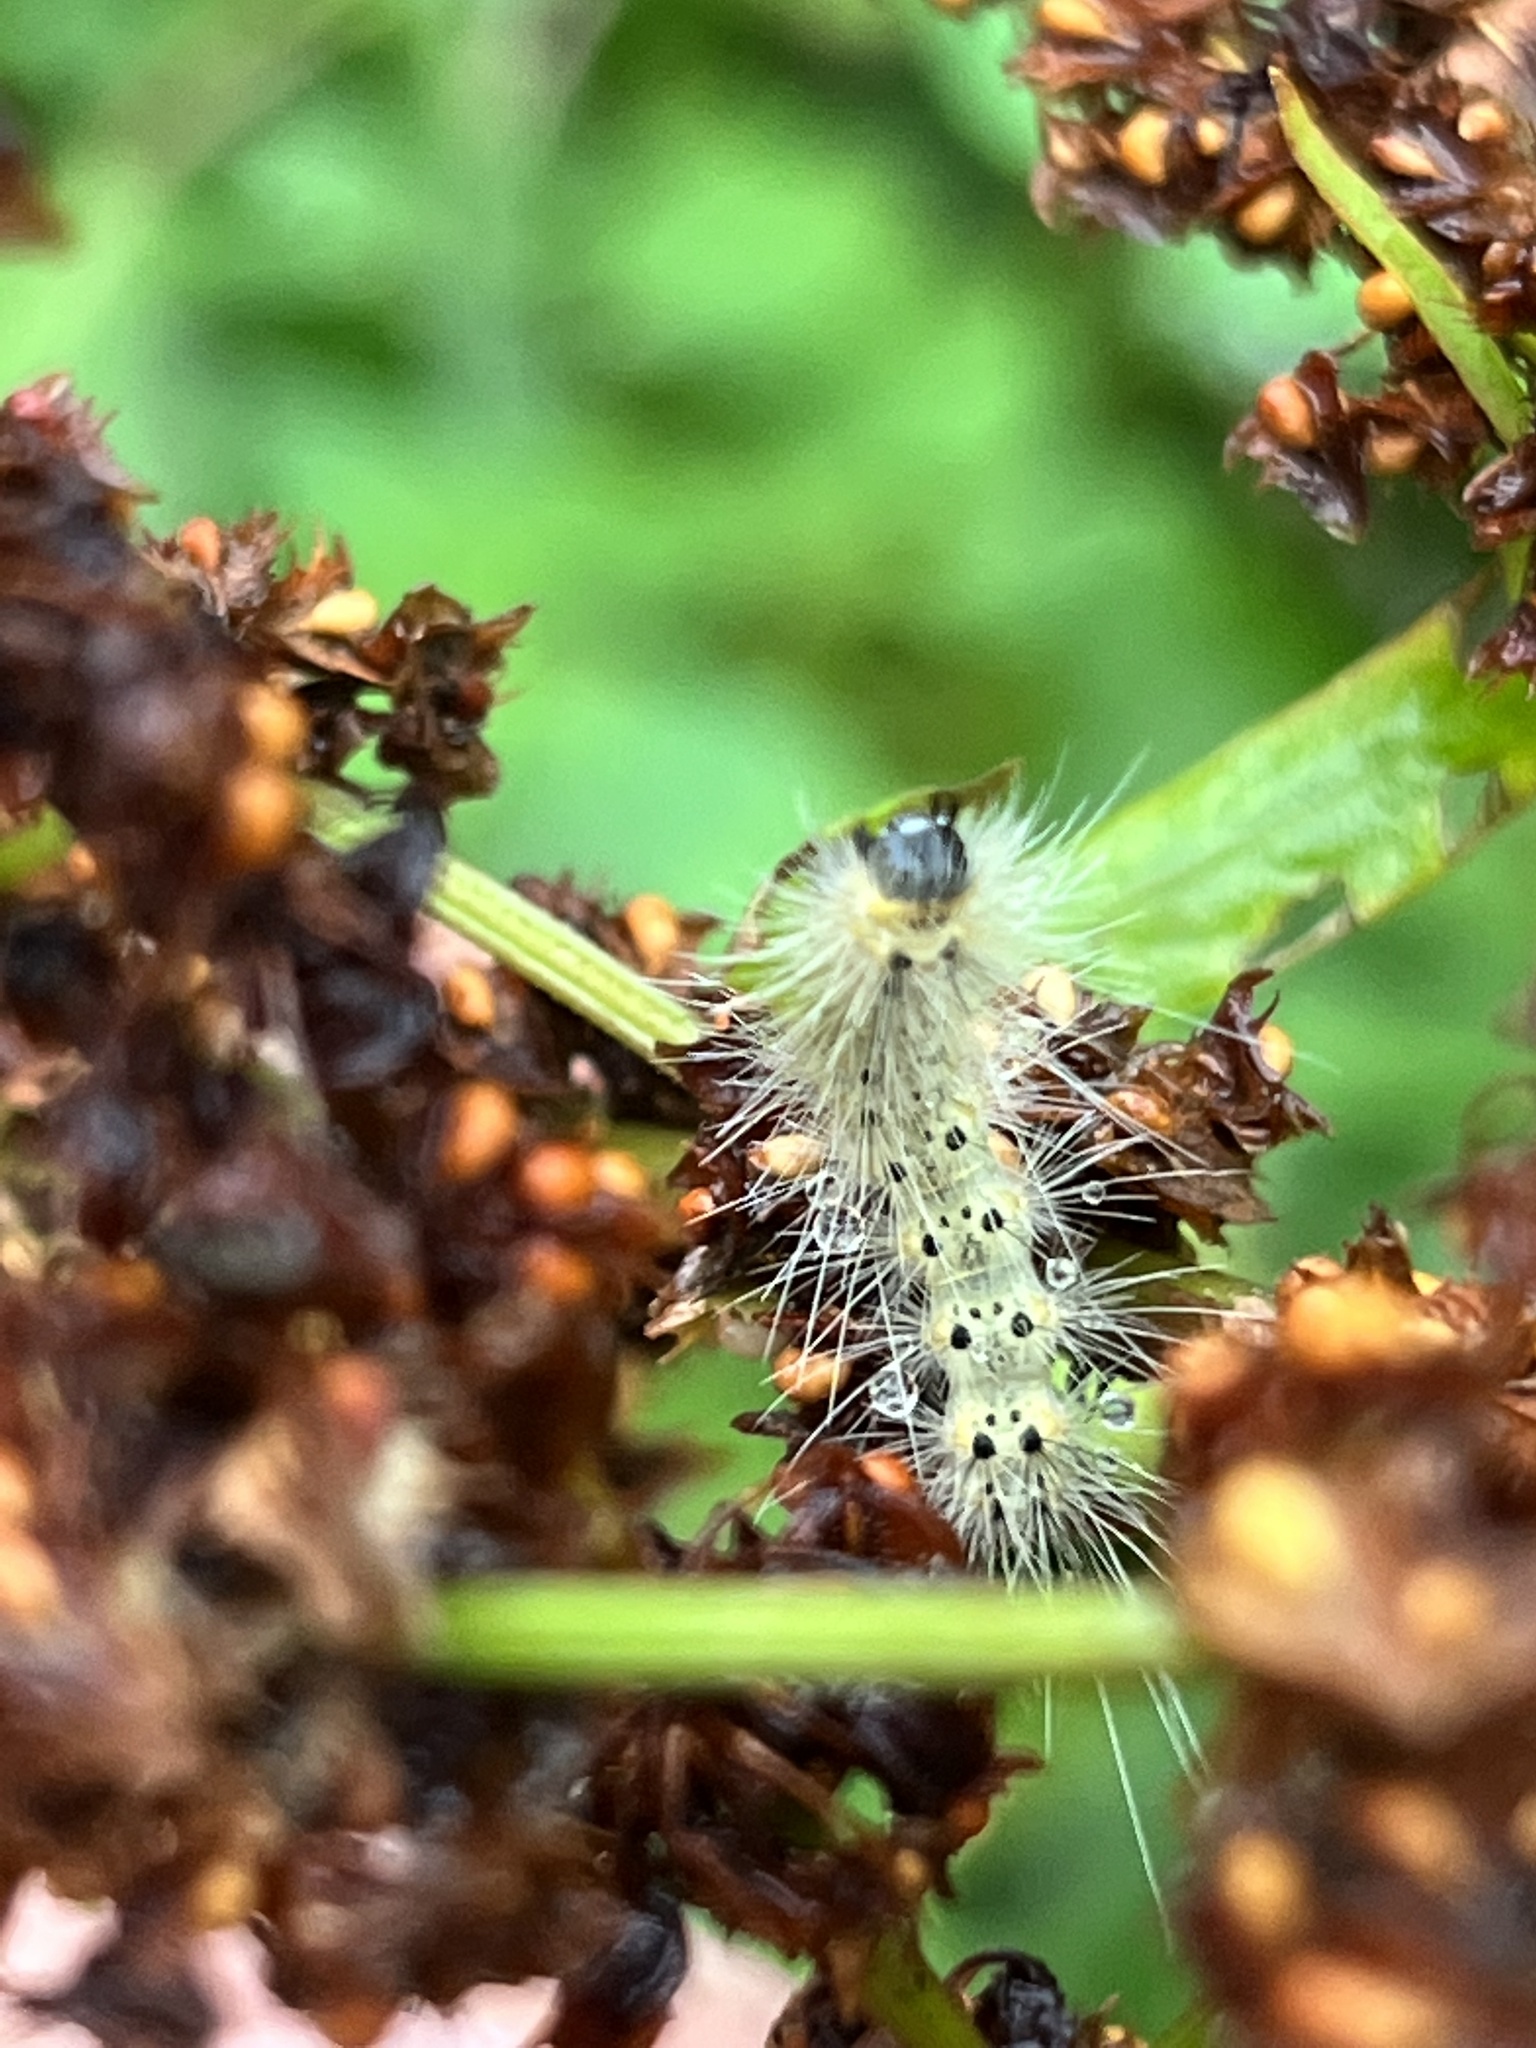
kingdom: Animalia
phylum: Arthropoda
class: Insecta
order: Lepidoptera
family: Erebidae
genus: Hyphantria
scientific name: Hyphantria cunea
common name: American white moth
